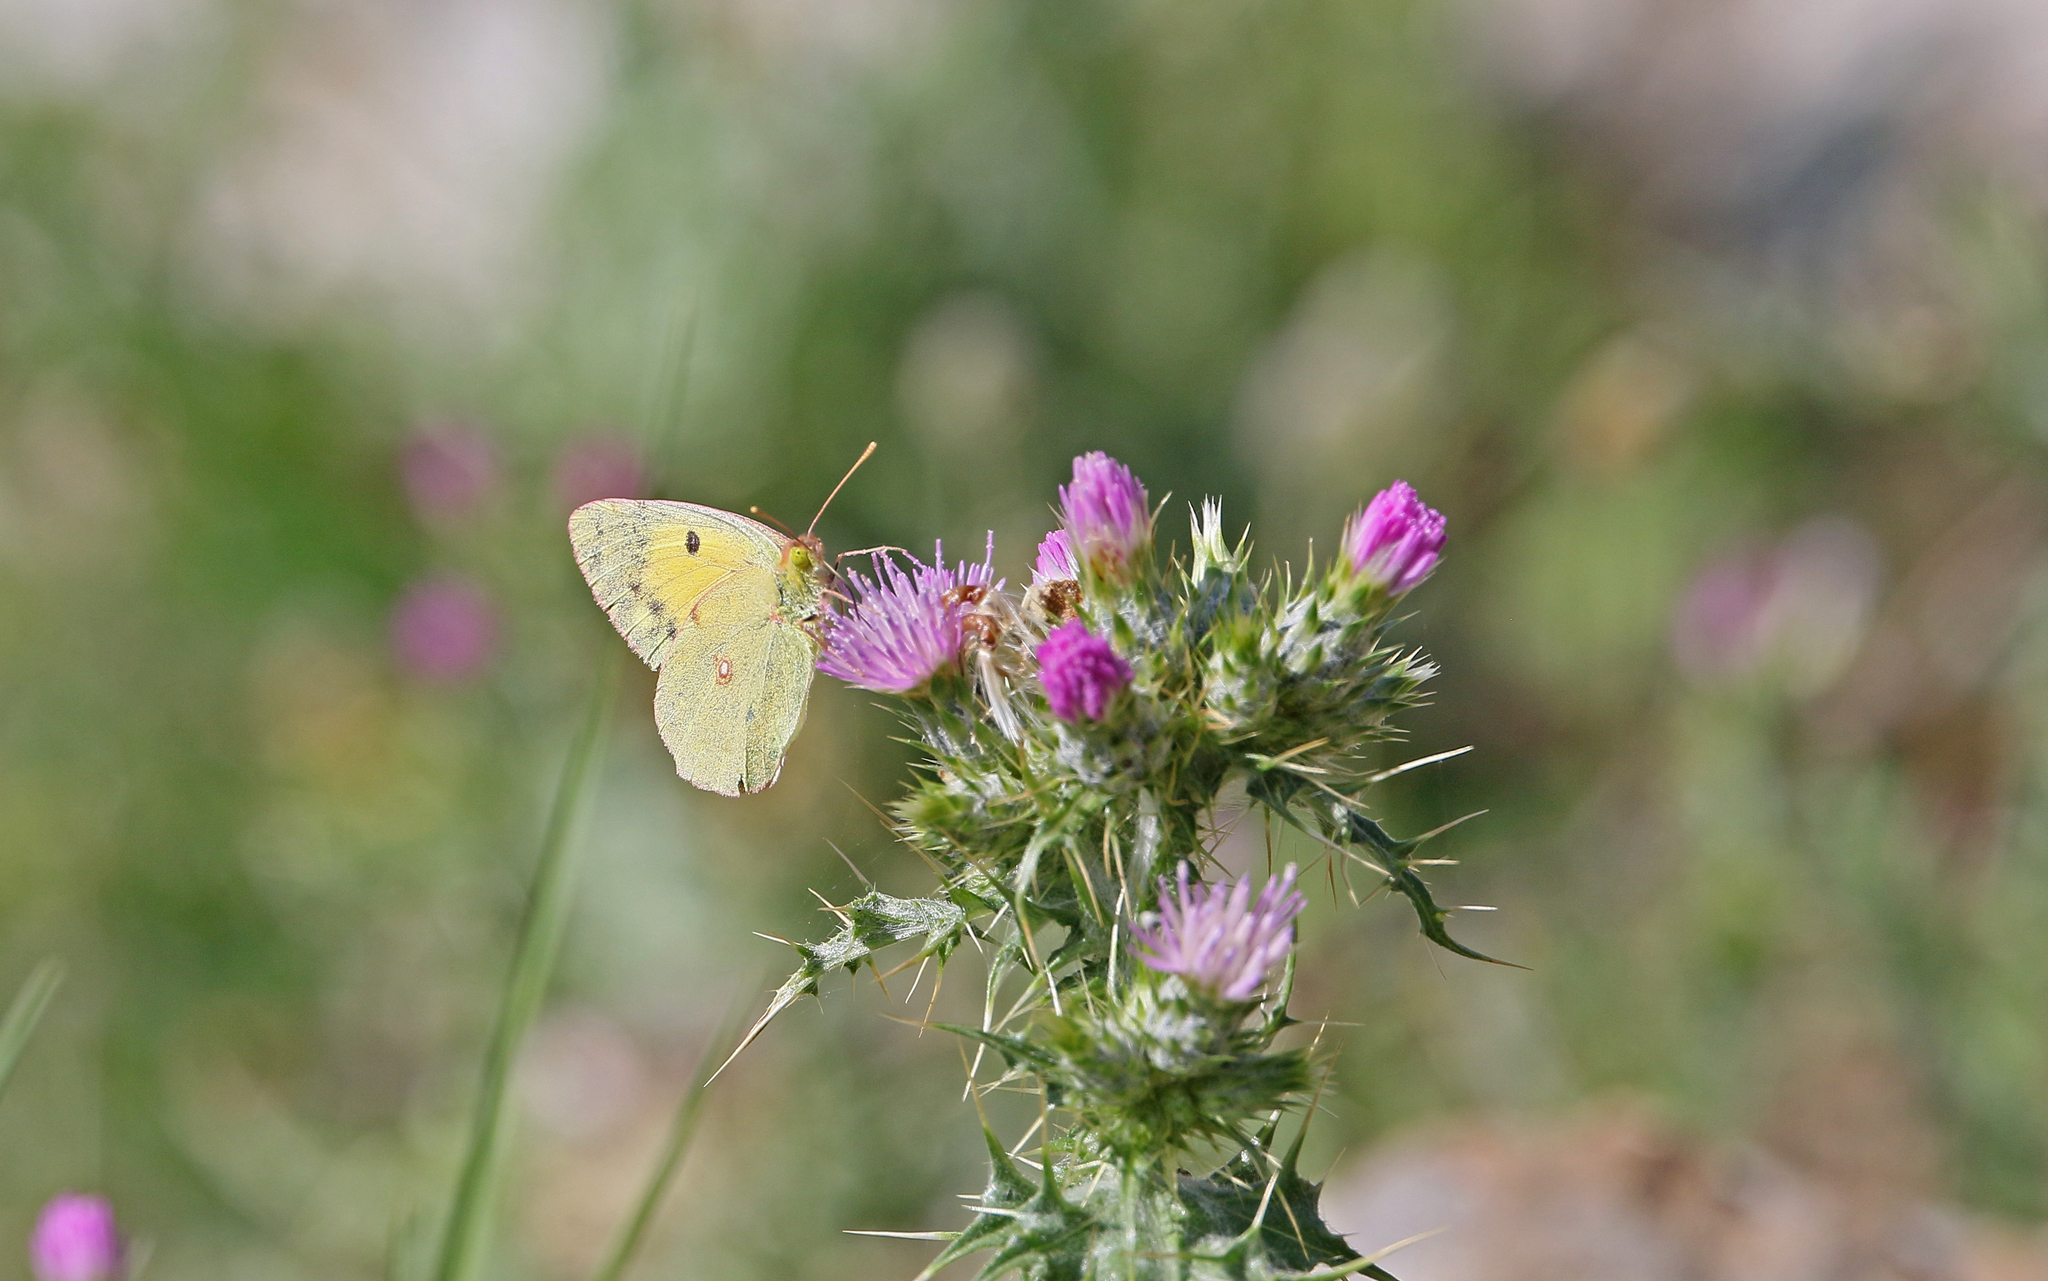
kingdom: Animalia
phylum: Arthropoda
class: Insecta
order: Lepidoptera
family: Pieridae
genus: Colias
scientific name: Colias croceus
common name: Clouded yellow
